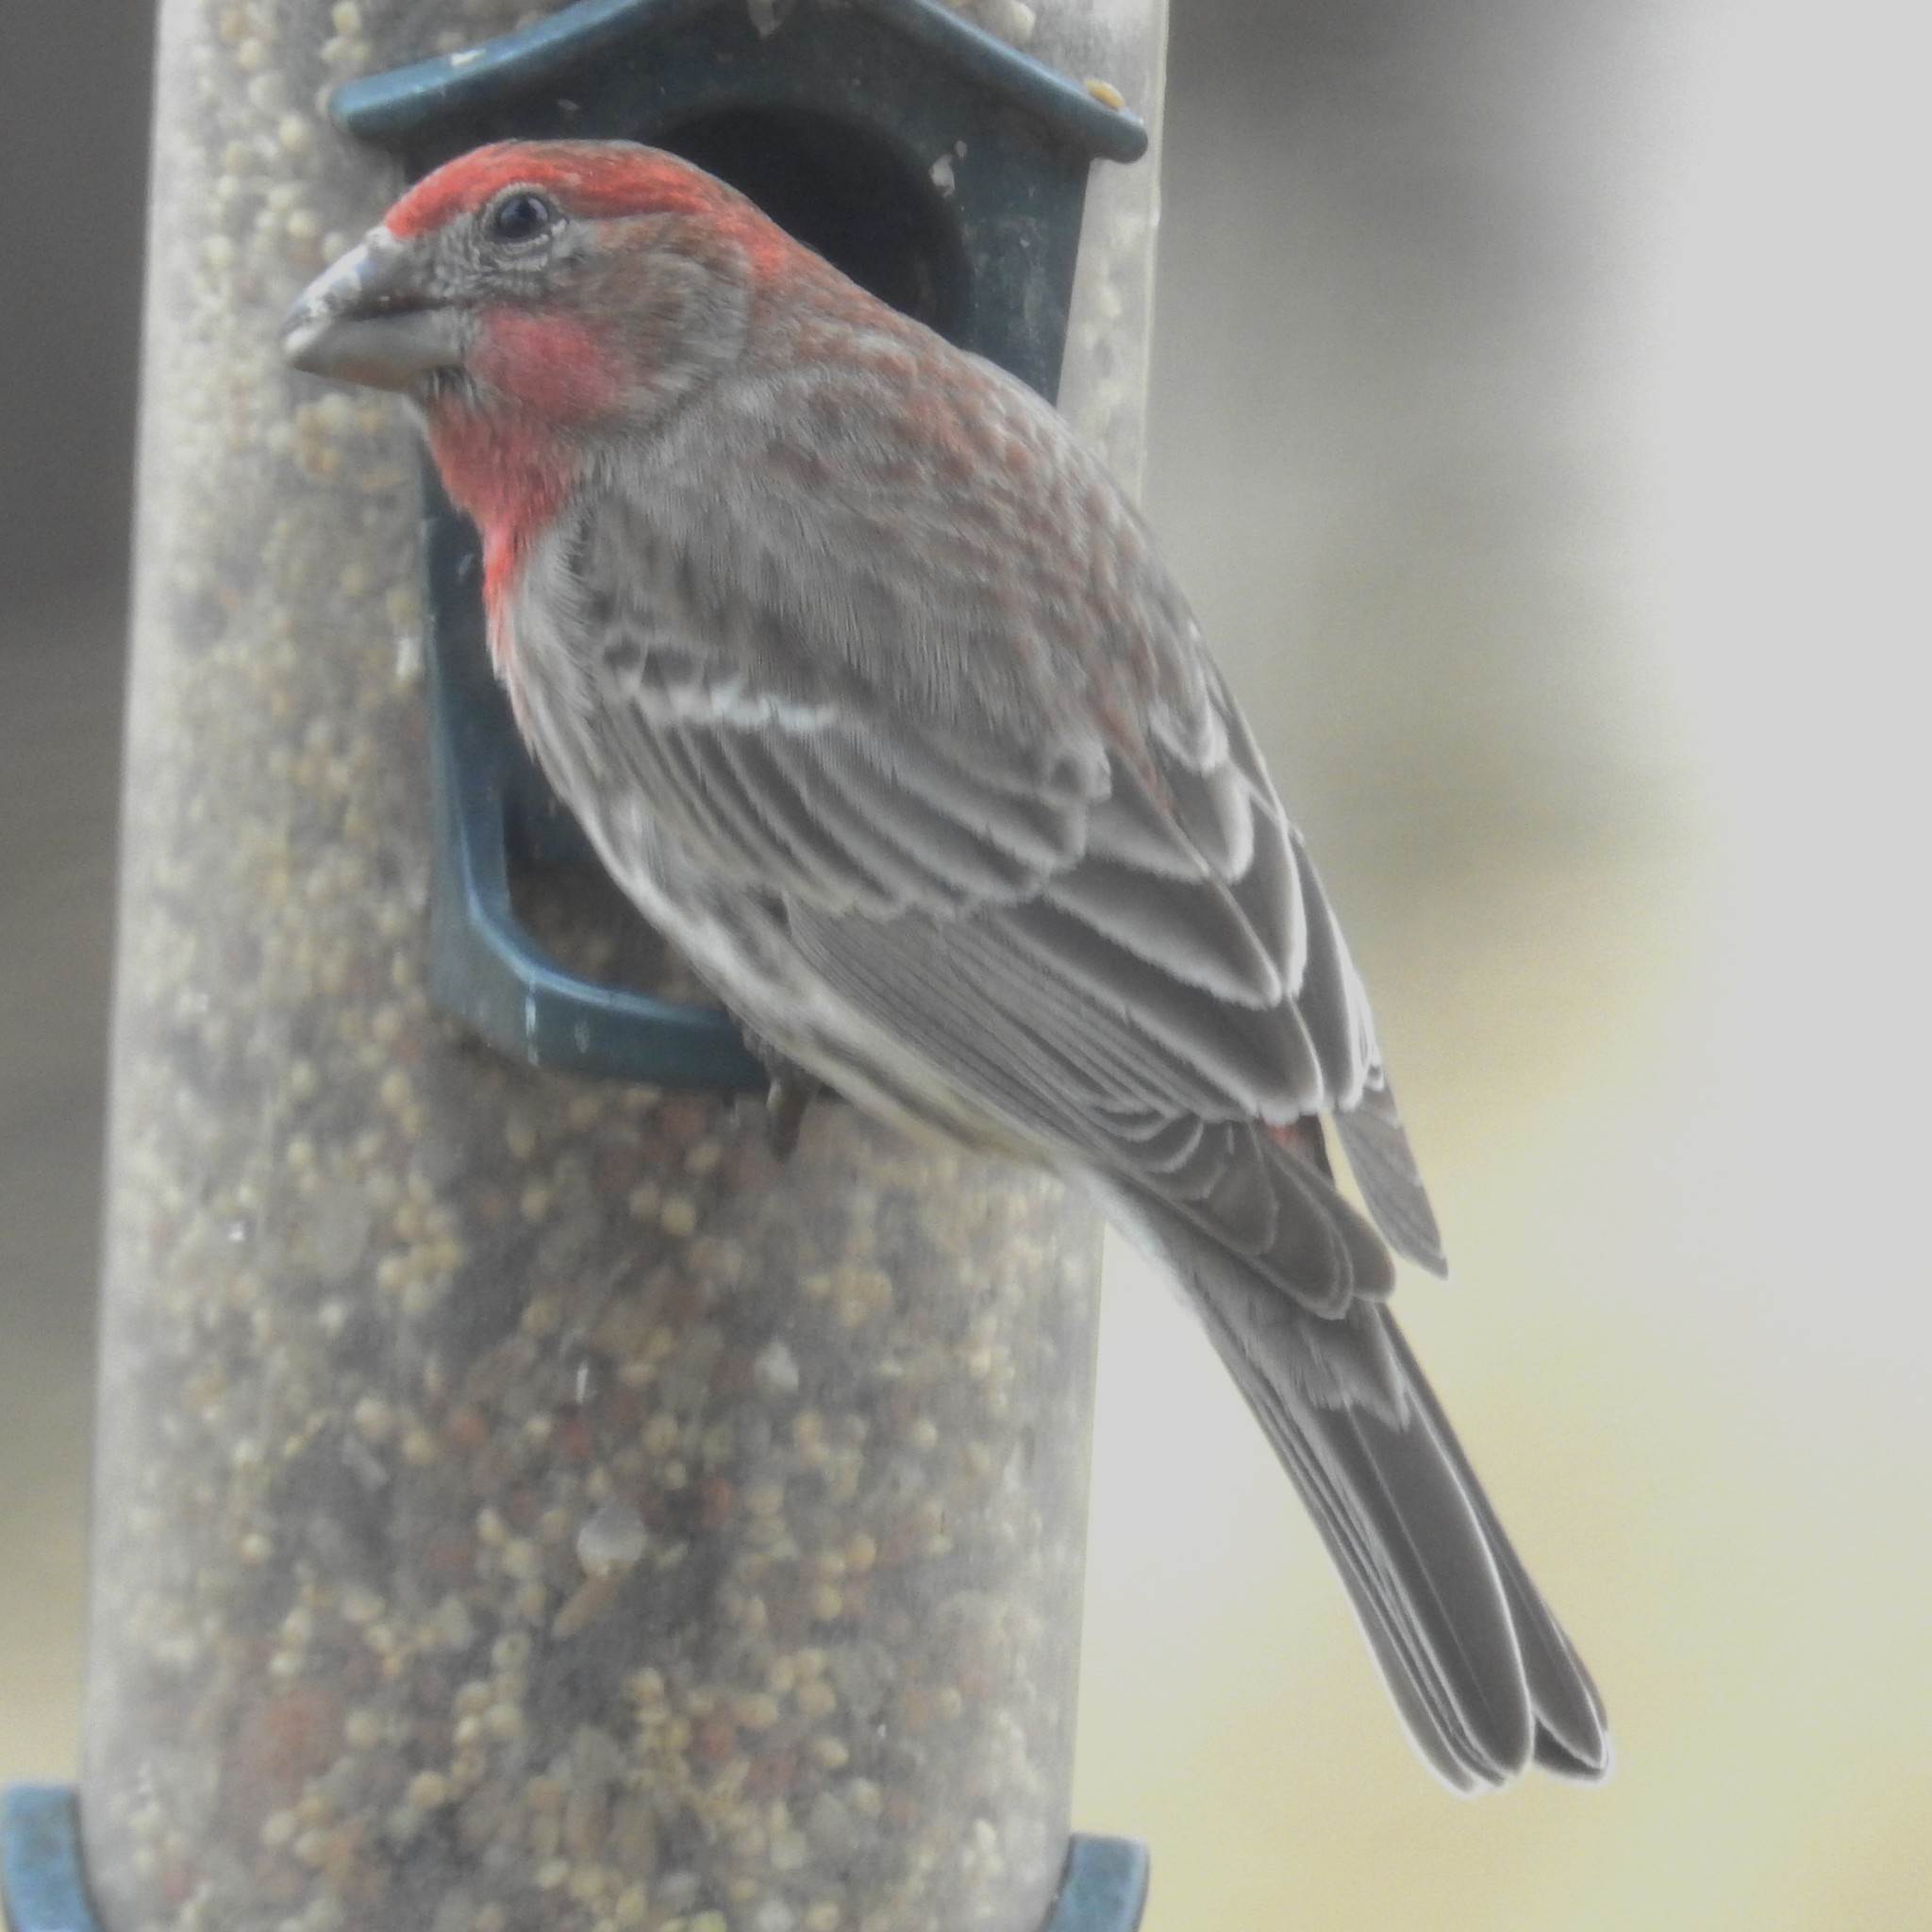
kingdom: Animalia
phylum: Chordata
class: Aves
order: Passeriformes
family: Fringillidae
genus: Haemorhous
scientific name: Haemorhous mexicanus
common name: House finch
